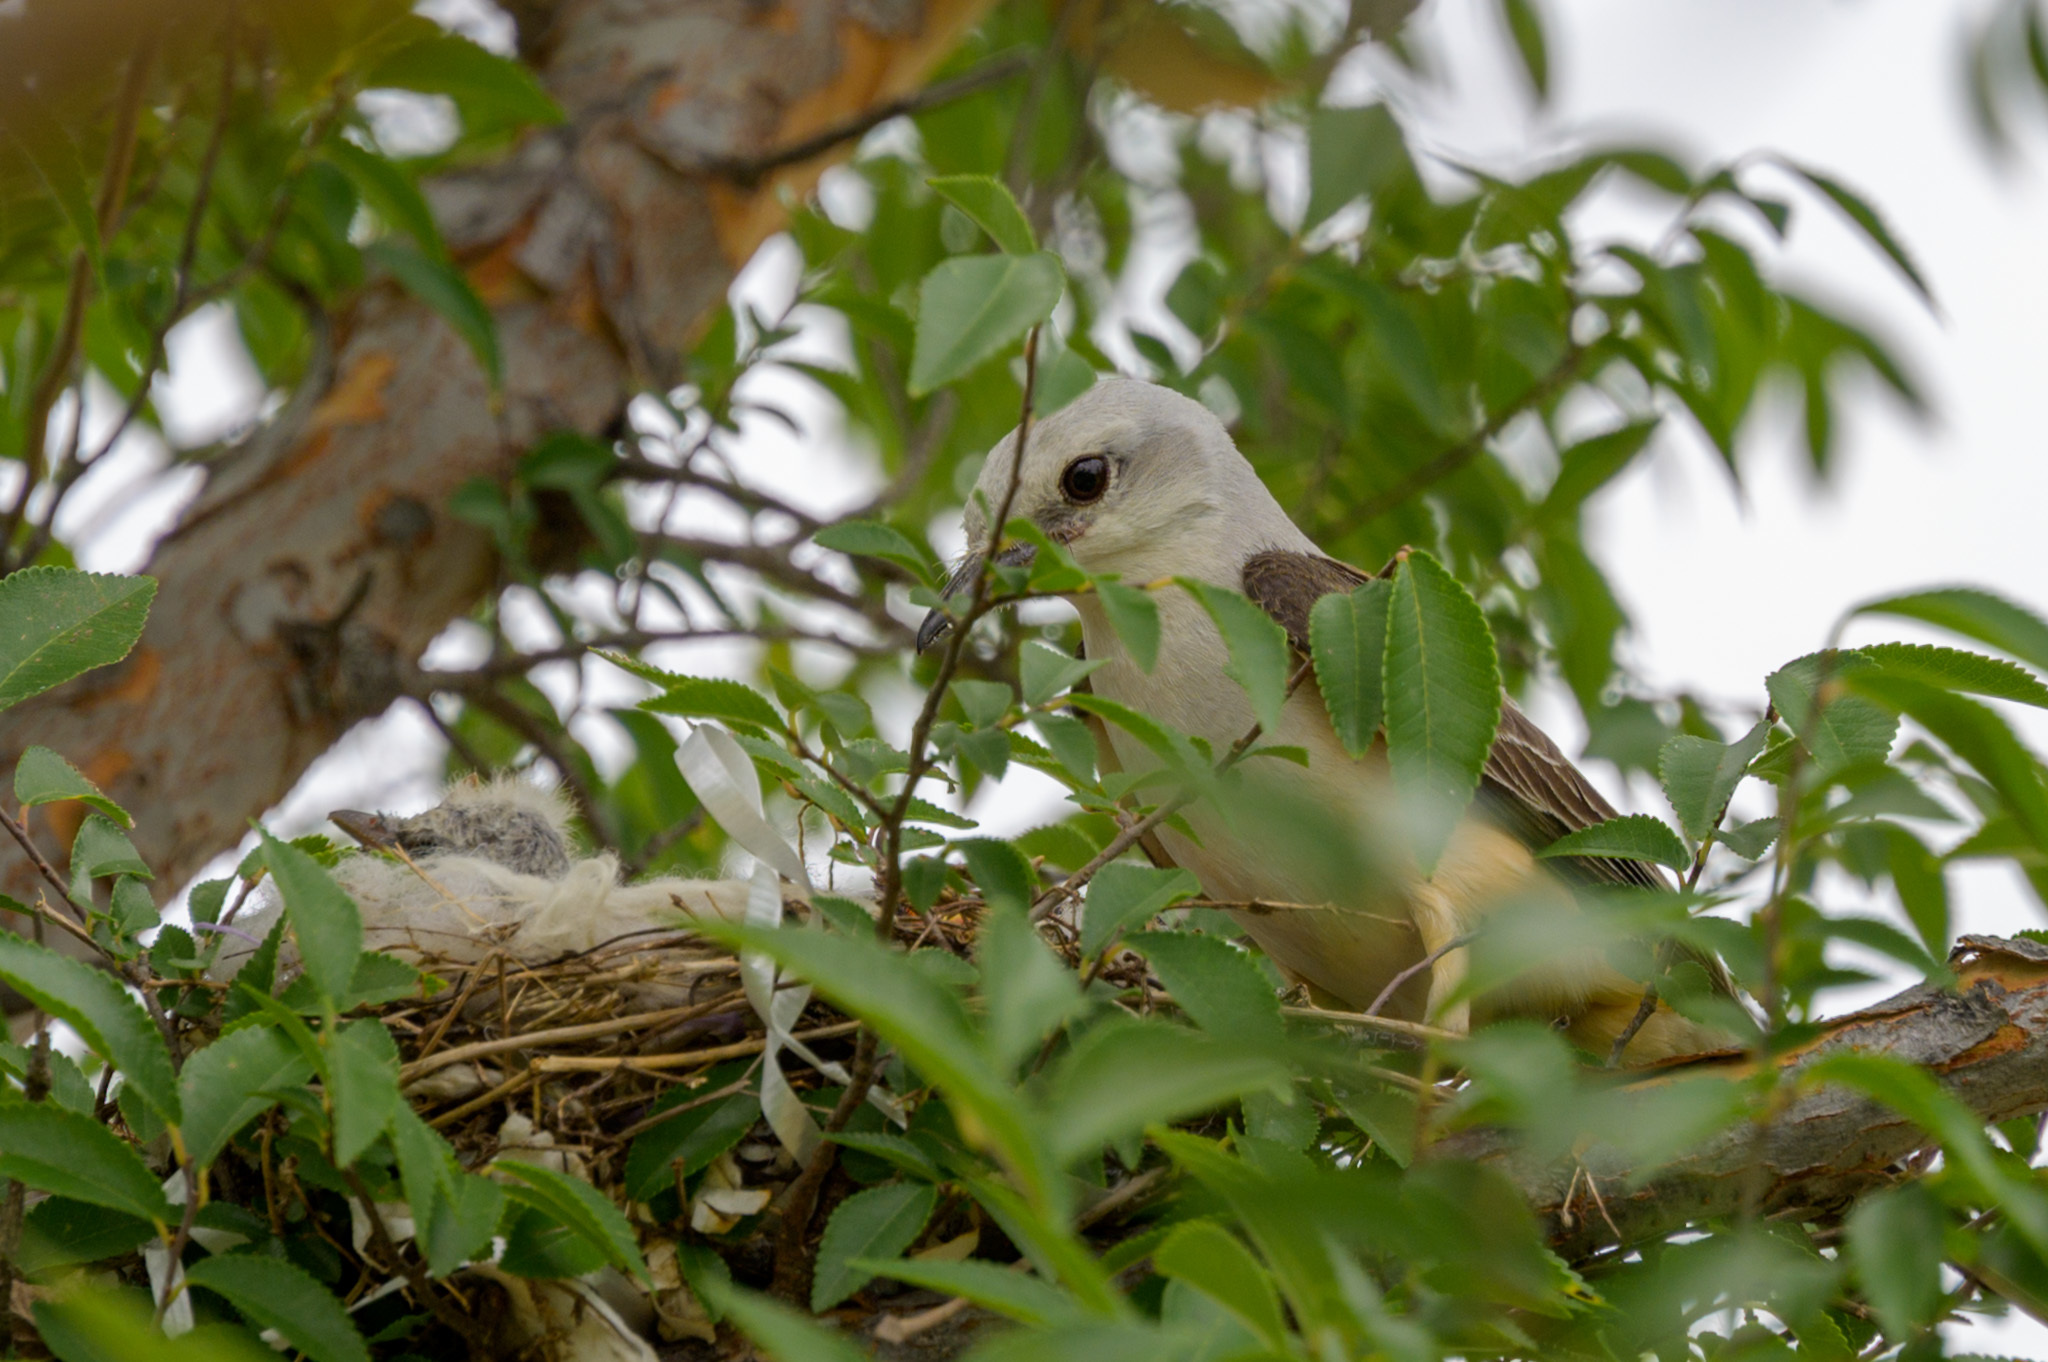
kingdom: Animalia
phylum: Chordata
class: Aves
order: Passeriformes
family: Tyrannidae
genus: Tyrannus
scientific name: Tyrannus forficatus
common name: Scissor-tailed flycatcher
